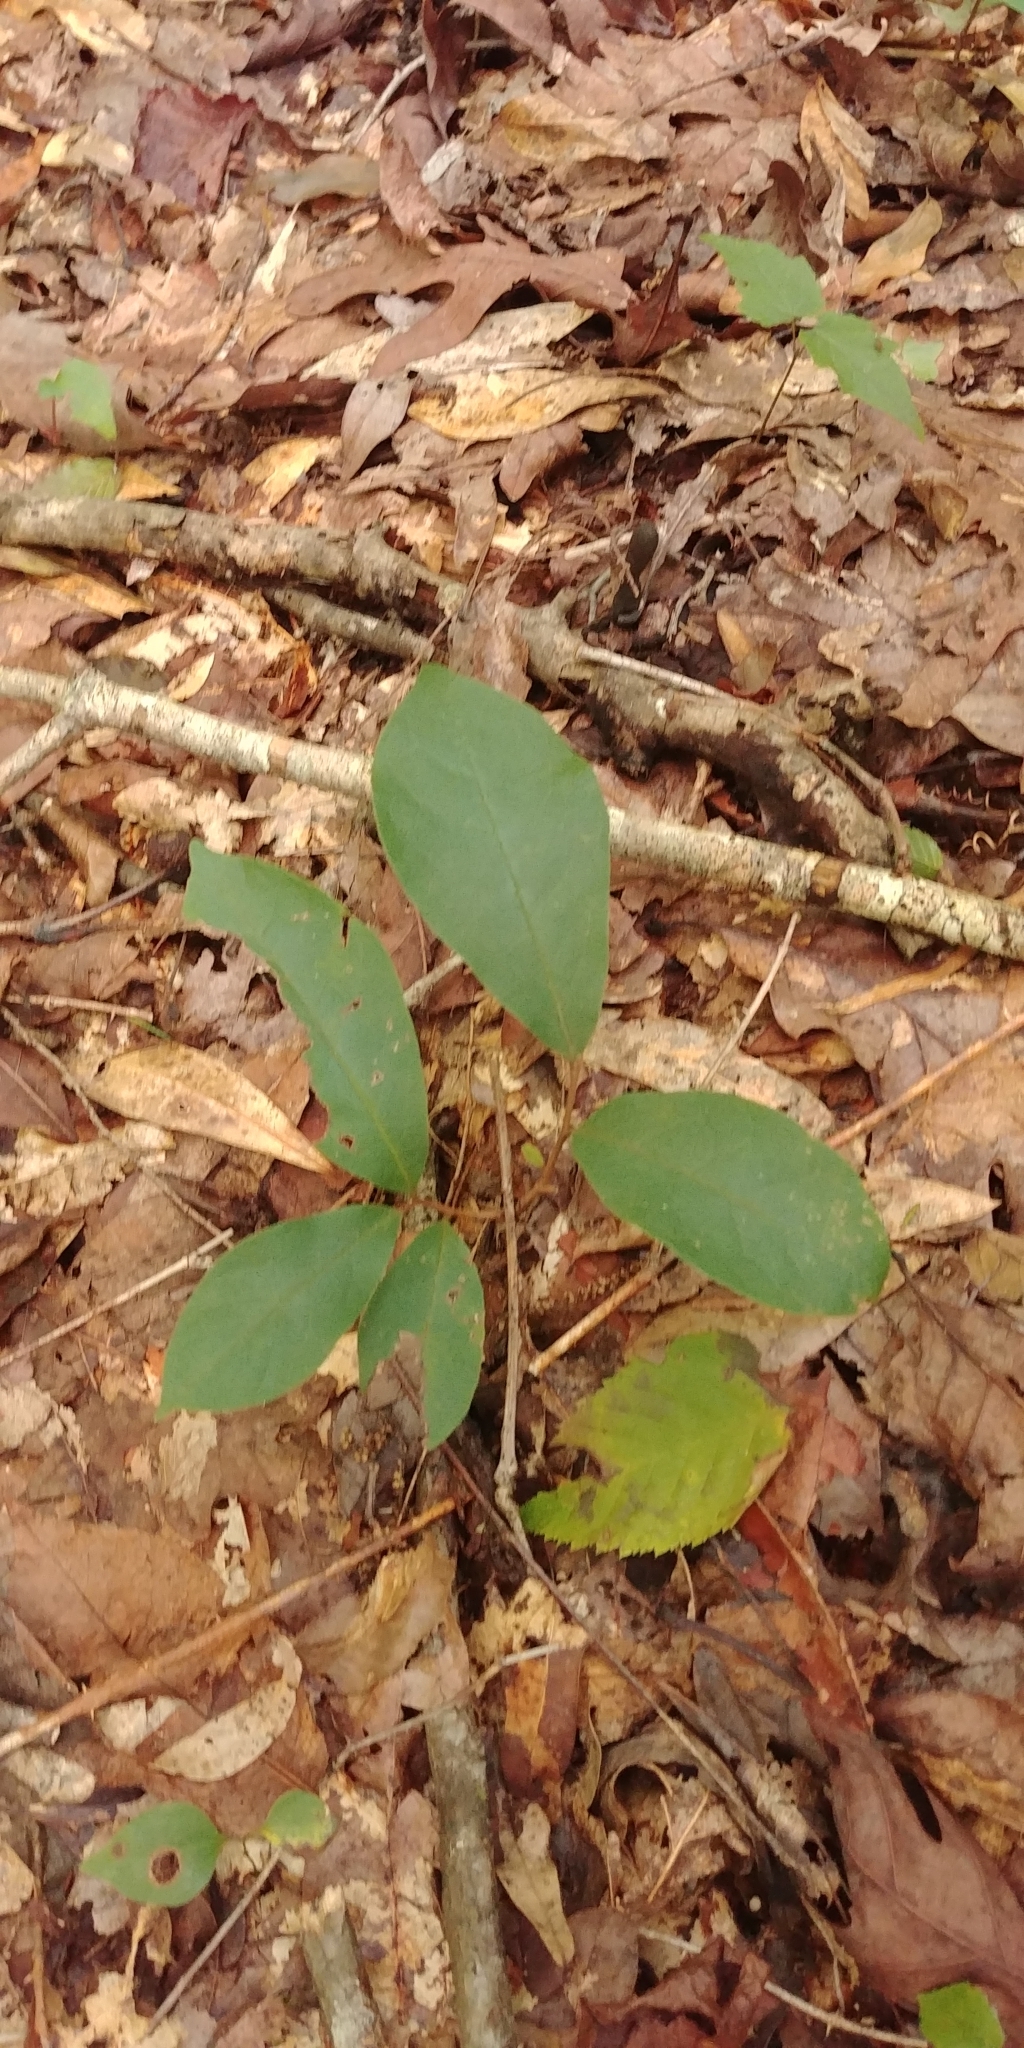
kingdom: Plantae
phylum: Tracheophyta
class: Magnoliopsida
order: Austrobaileyales
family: Schisandraceae
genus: Schisandra
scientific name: Schisandra glabra
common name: Bay-starvine
